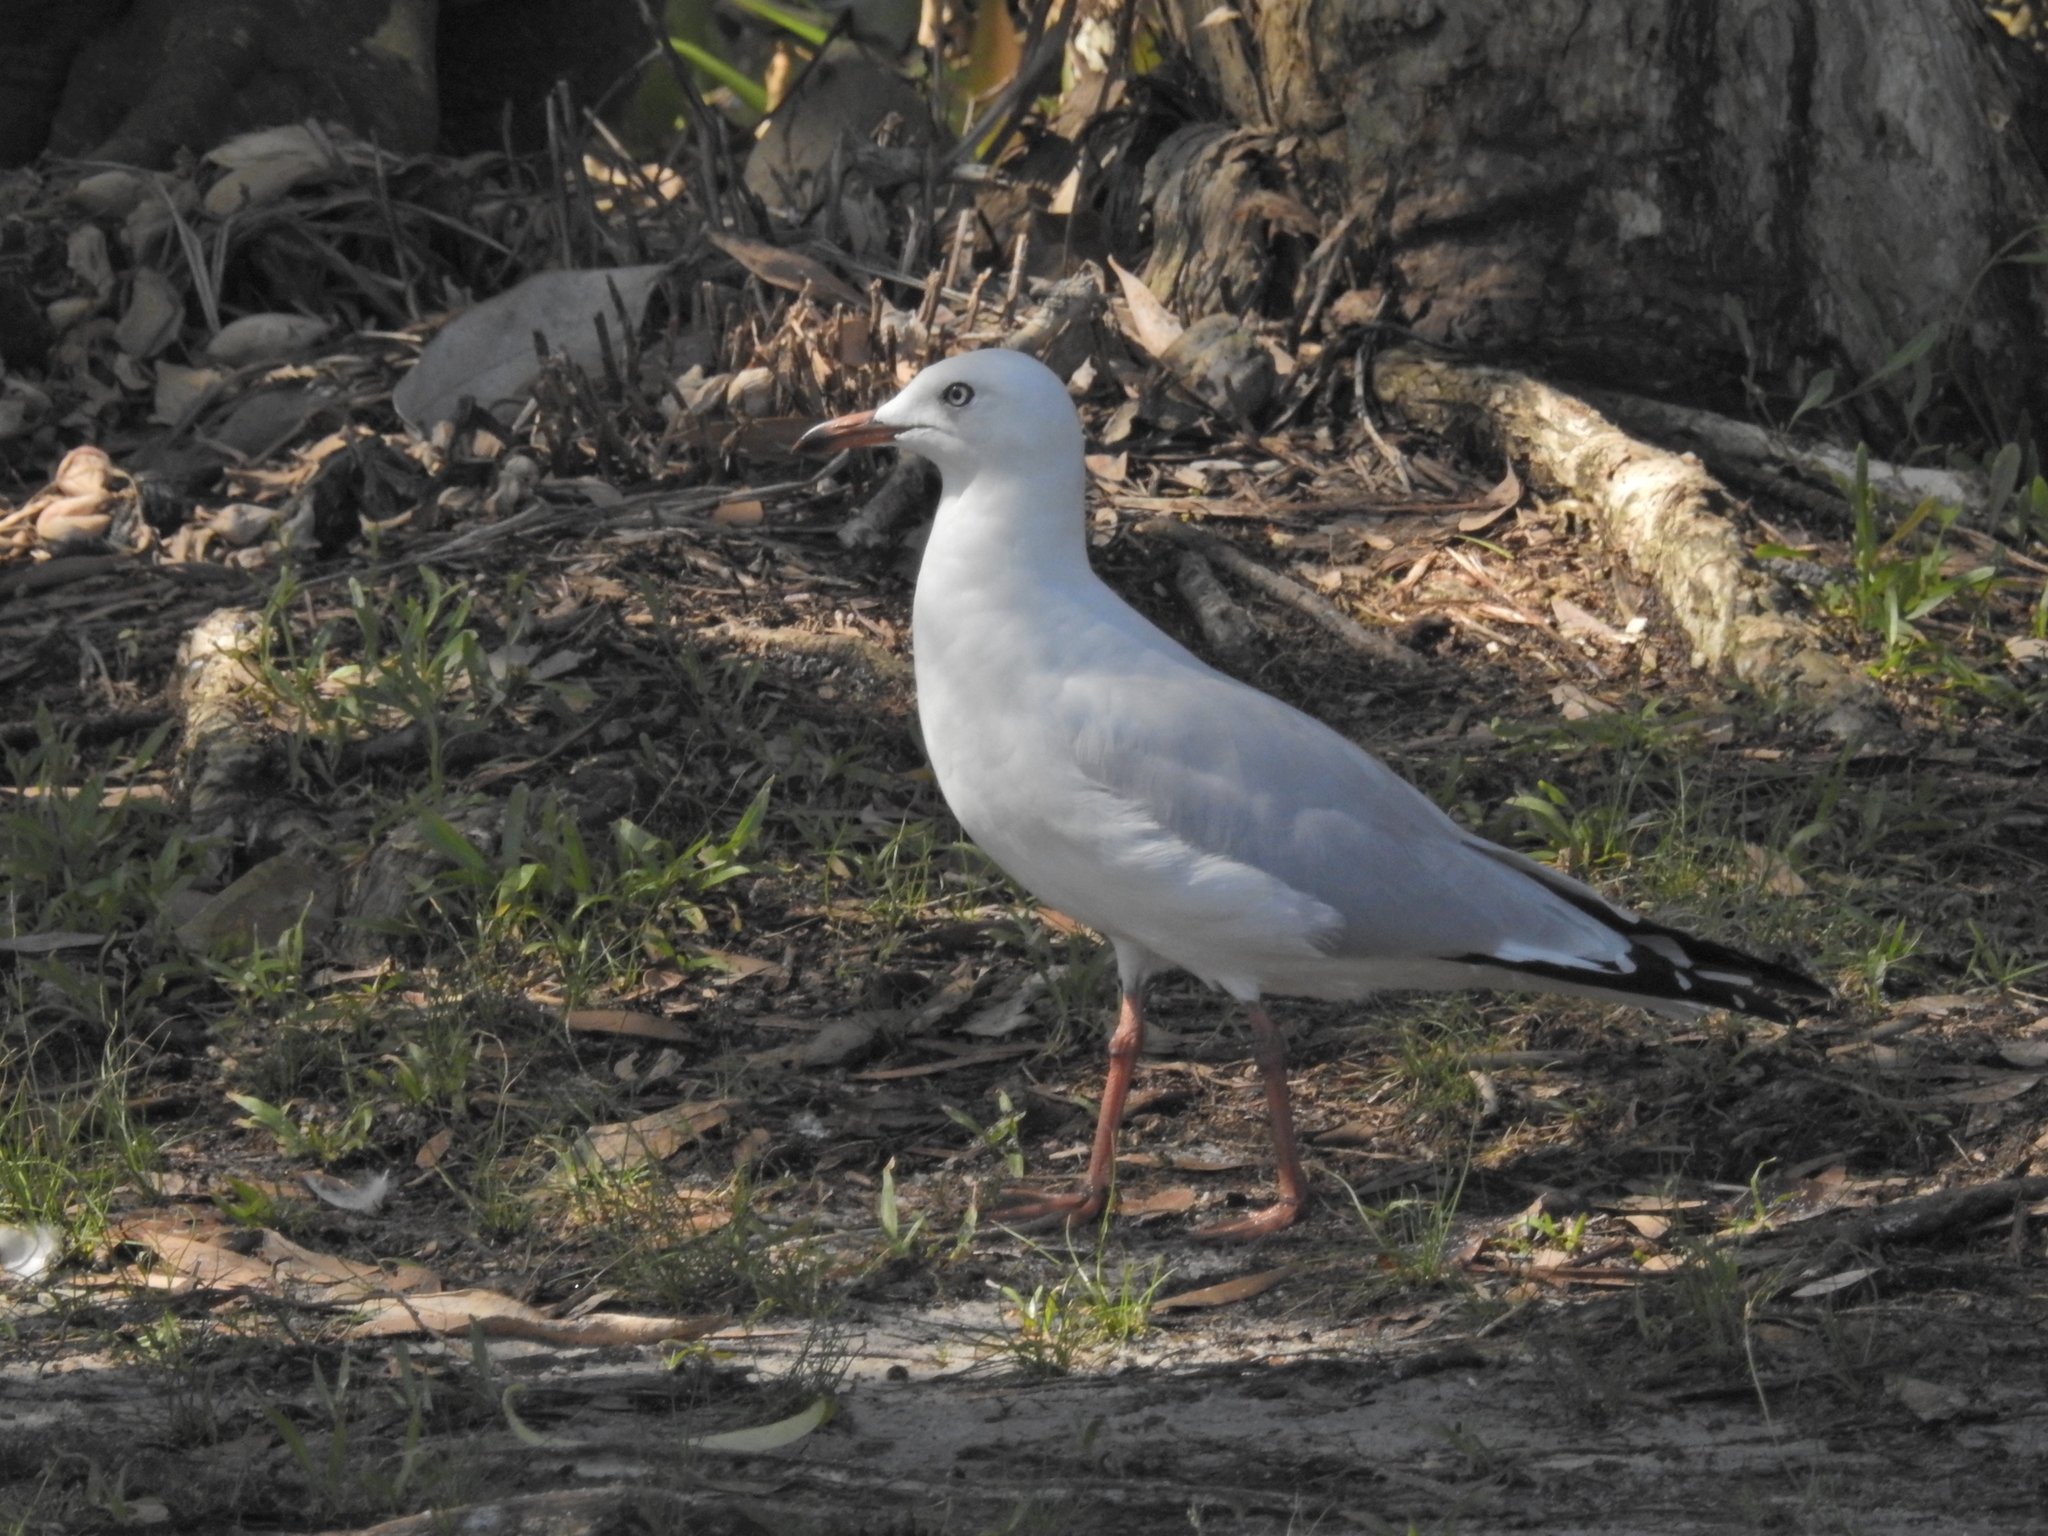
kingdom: Animalia
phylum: Chordata
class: Aves
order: Charadriiformes
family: Laridae
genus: Chroicocephalus
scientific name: Chroicocephalus novaehollandiae
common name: Silver gull
